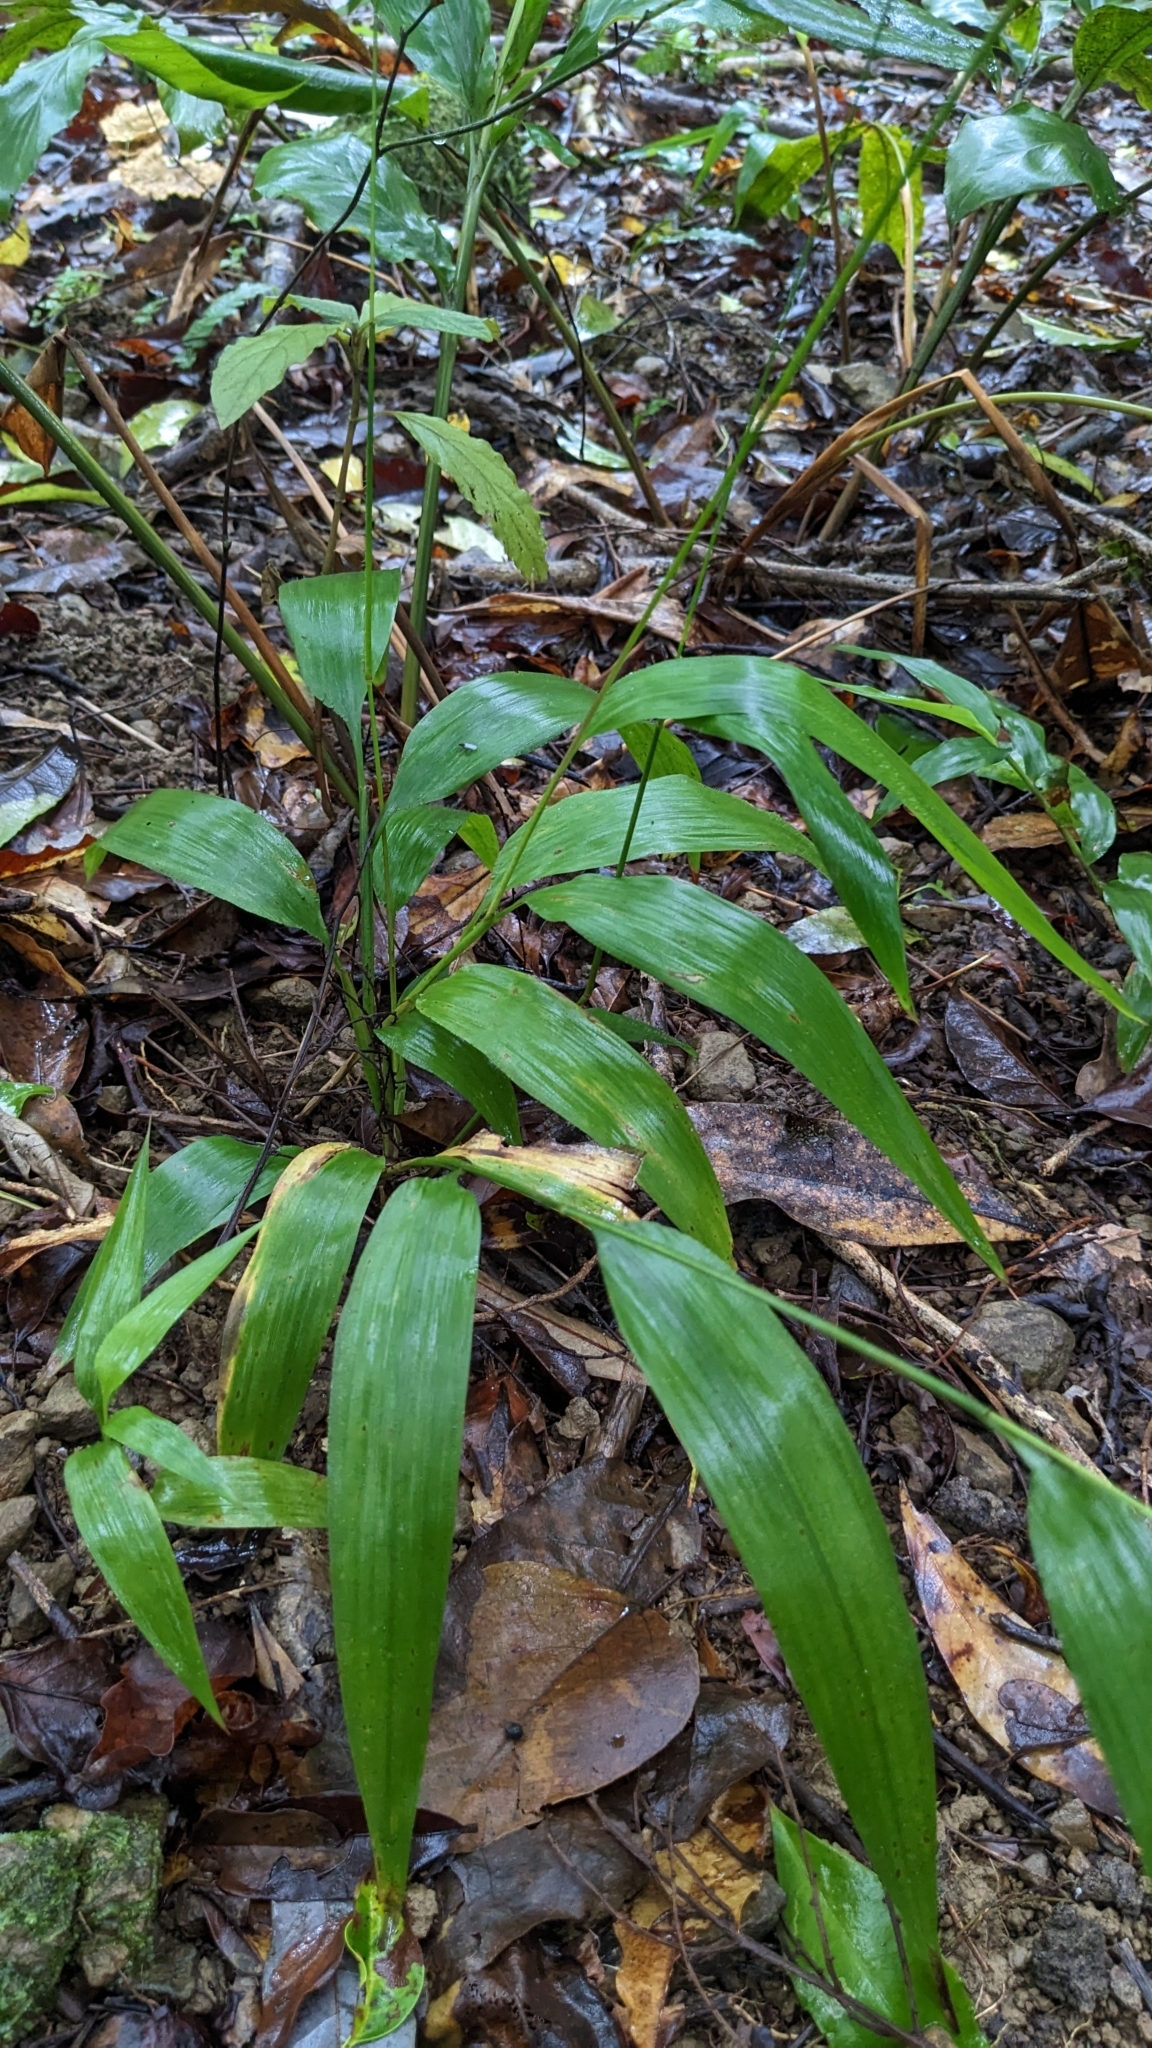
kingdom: Plantae
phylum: Tracheophyta
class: Liliopsida
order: Poales
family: Poaceae
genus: Lophatherum
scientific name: Lophatherum gracile
